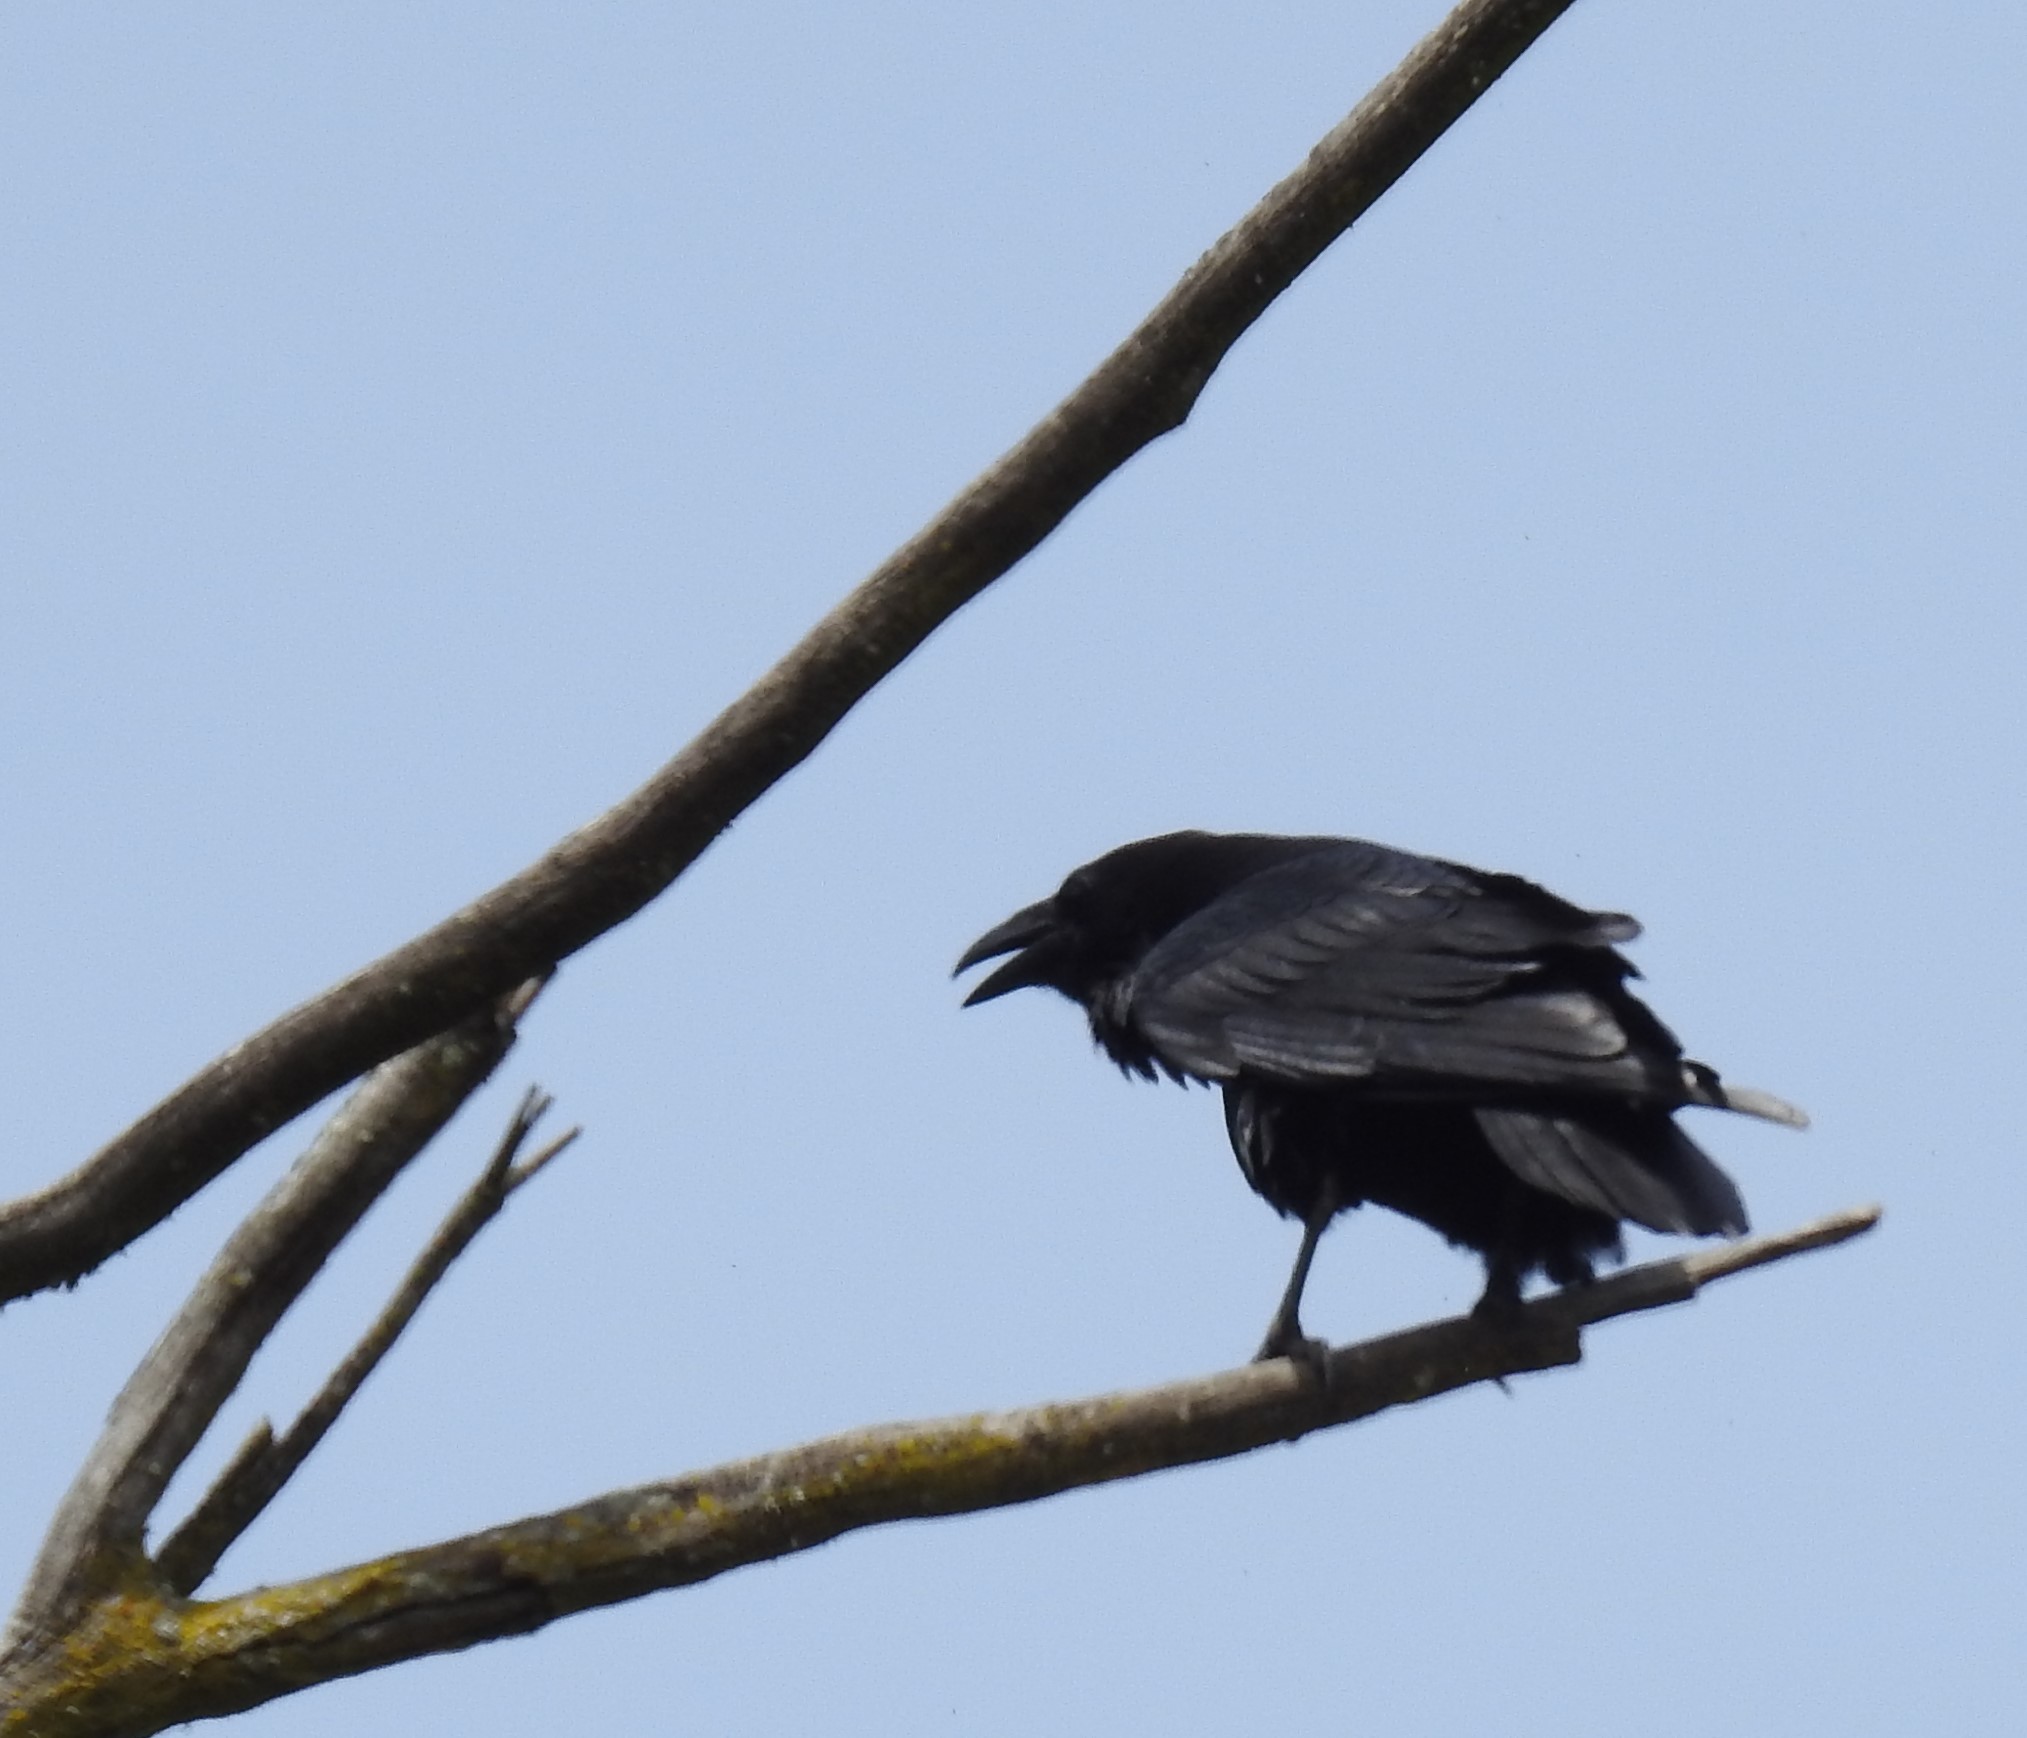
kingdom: Animalia
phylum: Chordata
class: Aves
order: Passeriformes
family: Corvidae
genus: Corvus
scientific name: Corvus corax
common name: Common raven
